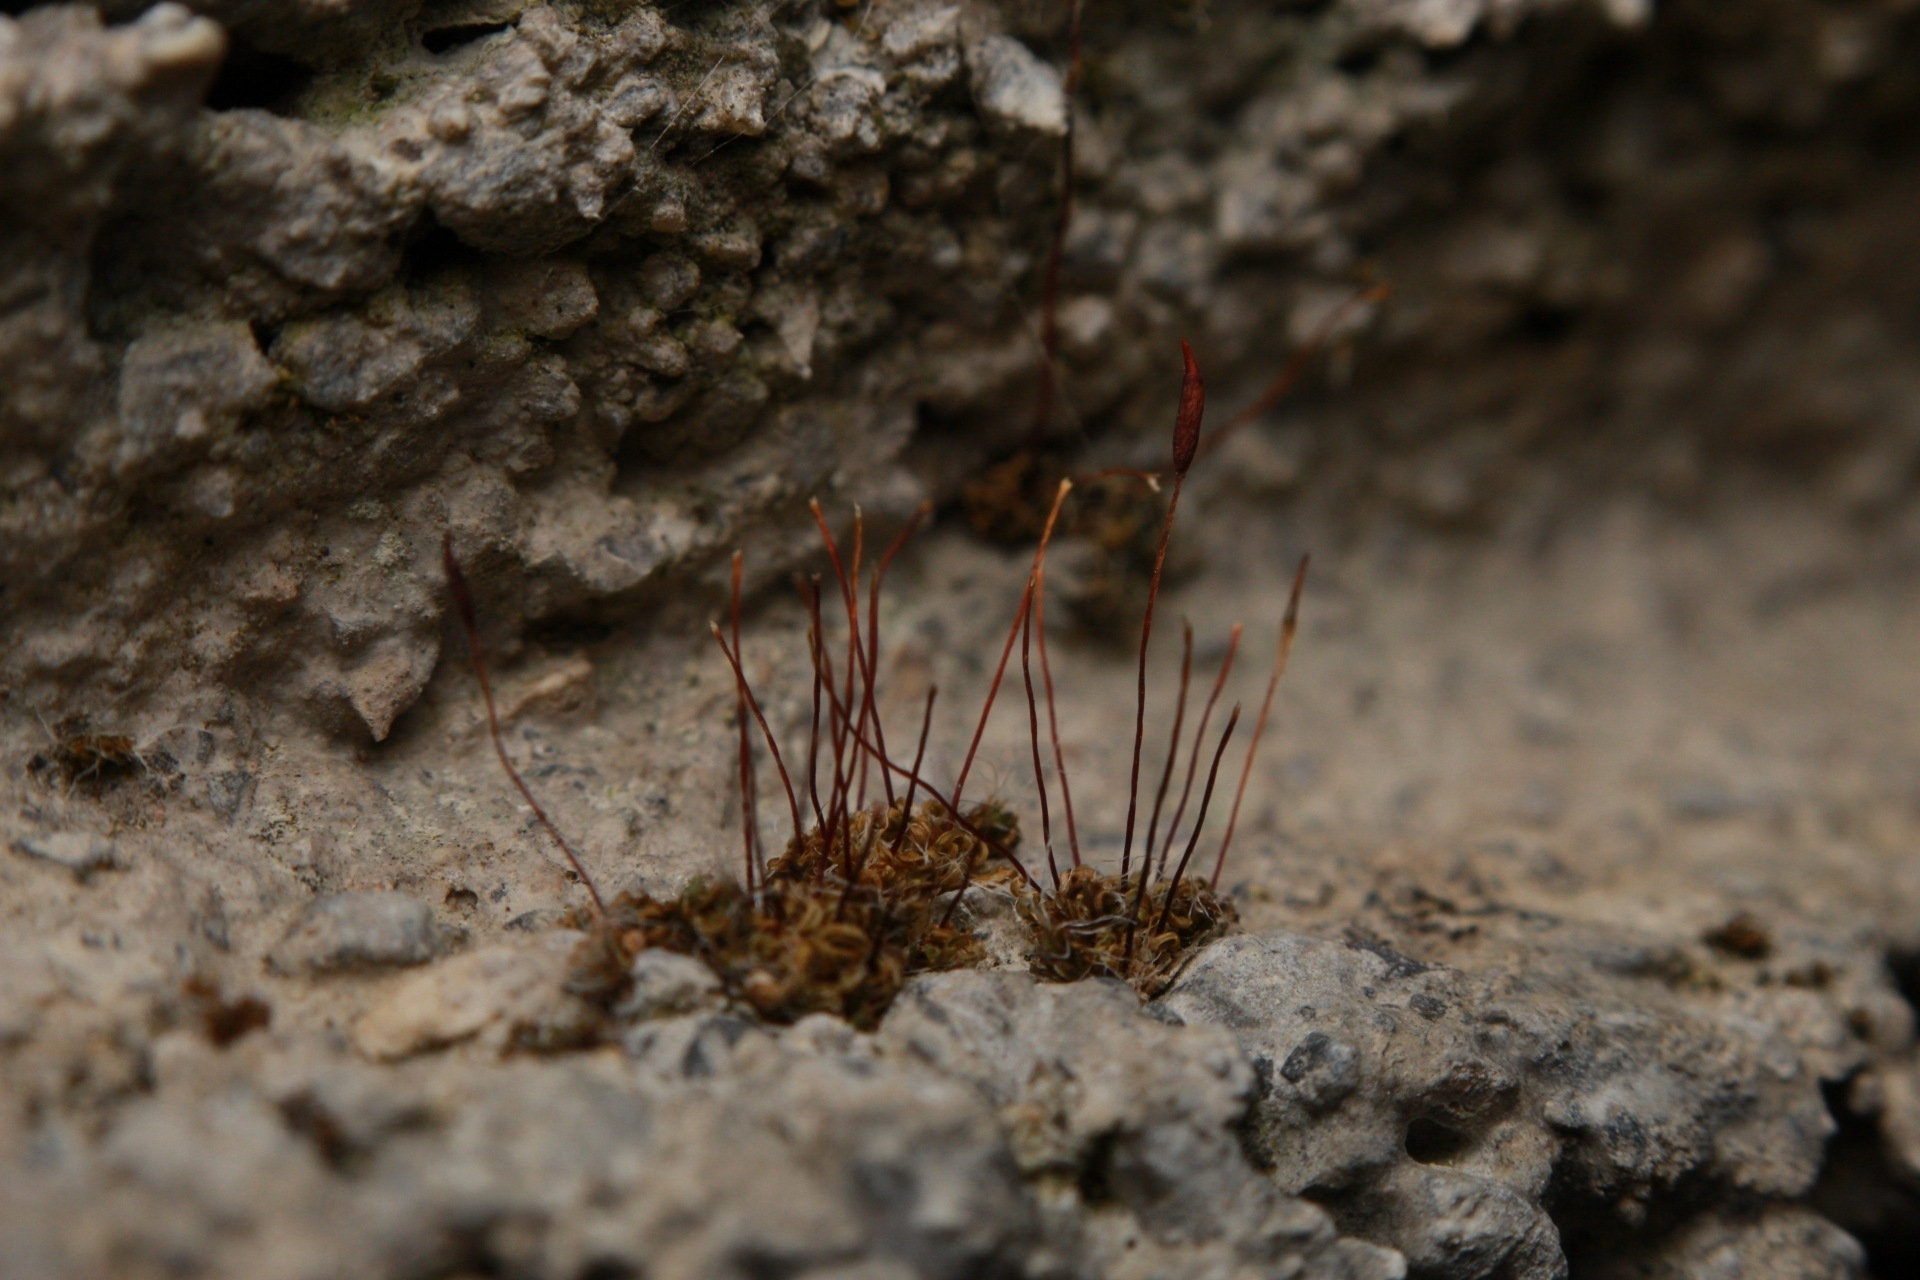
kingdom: Plantae
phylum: Bryophyta
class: Bryopsida
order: Pottiales
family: Pottiaceae
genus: Tortula
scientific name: Tortula muralis
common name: Wall screw-moss
